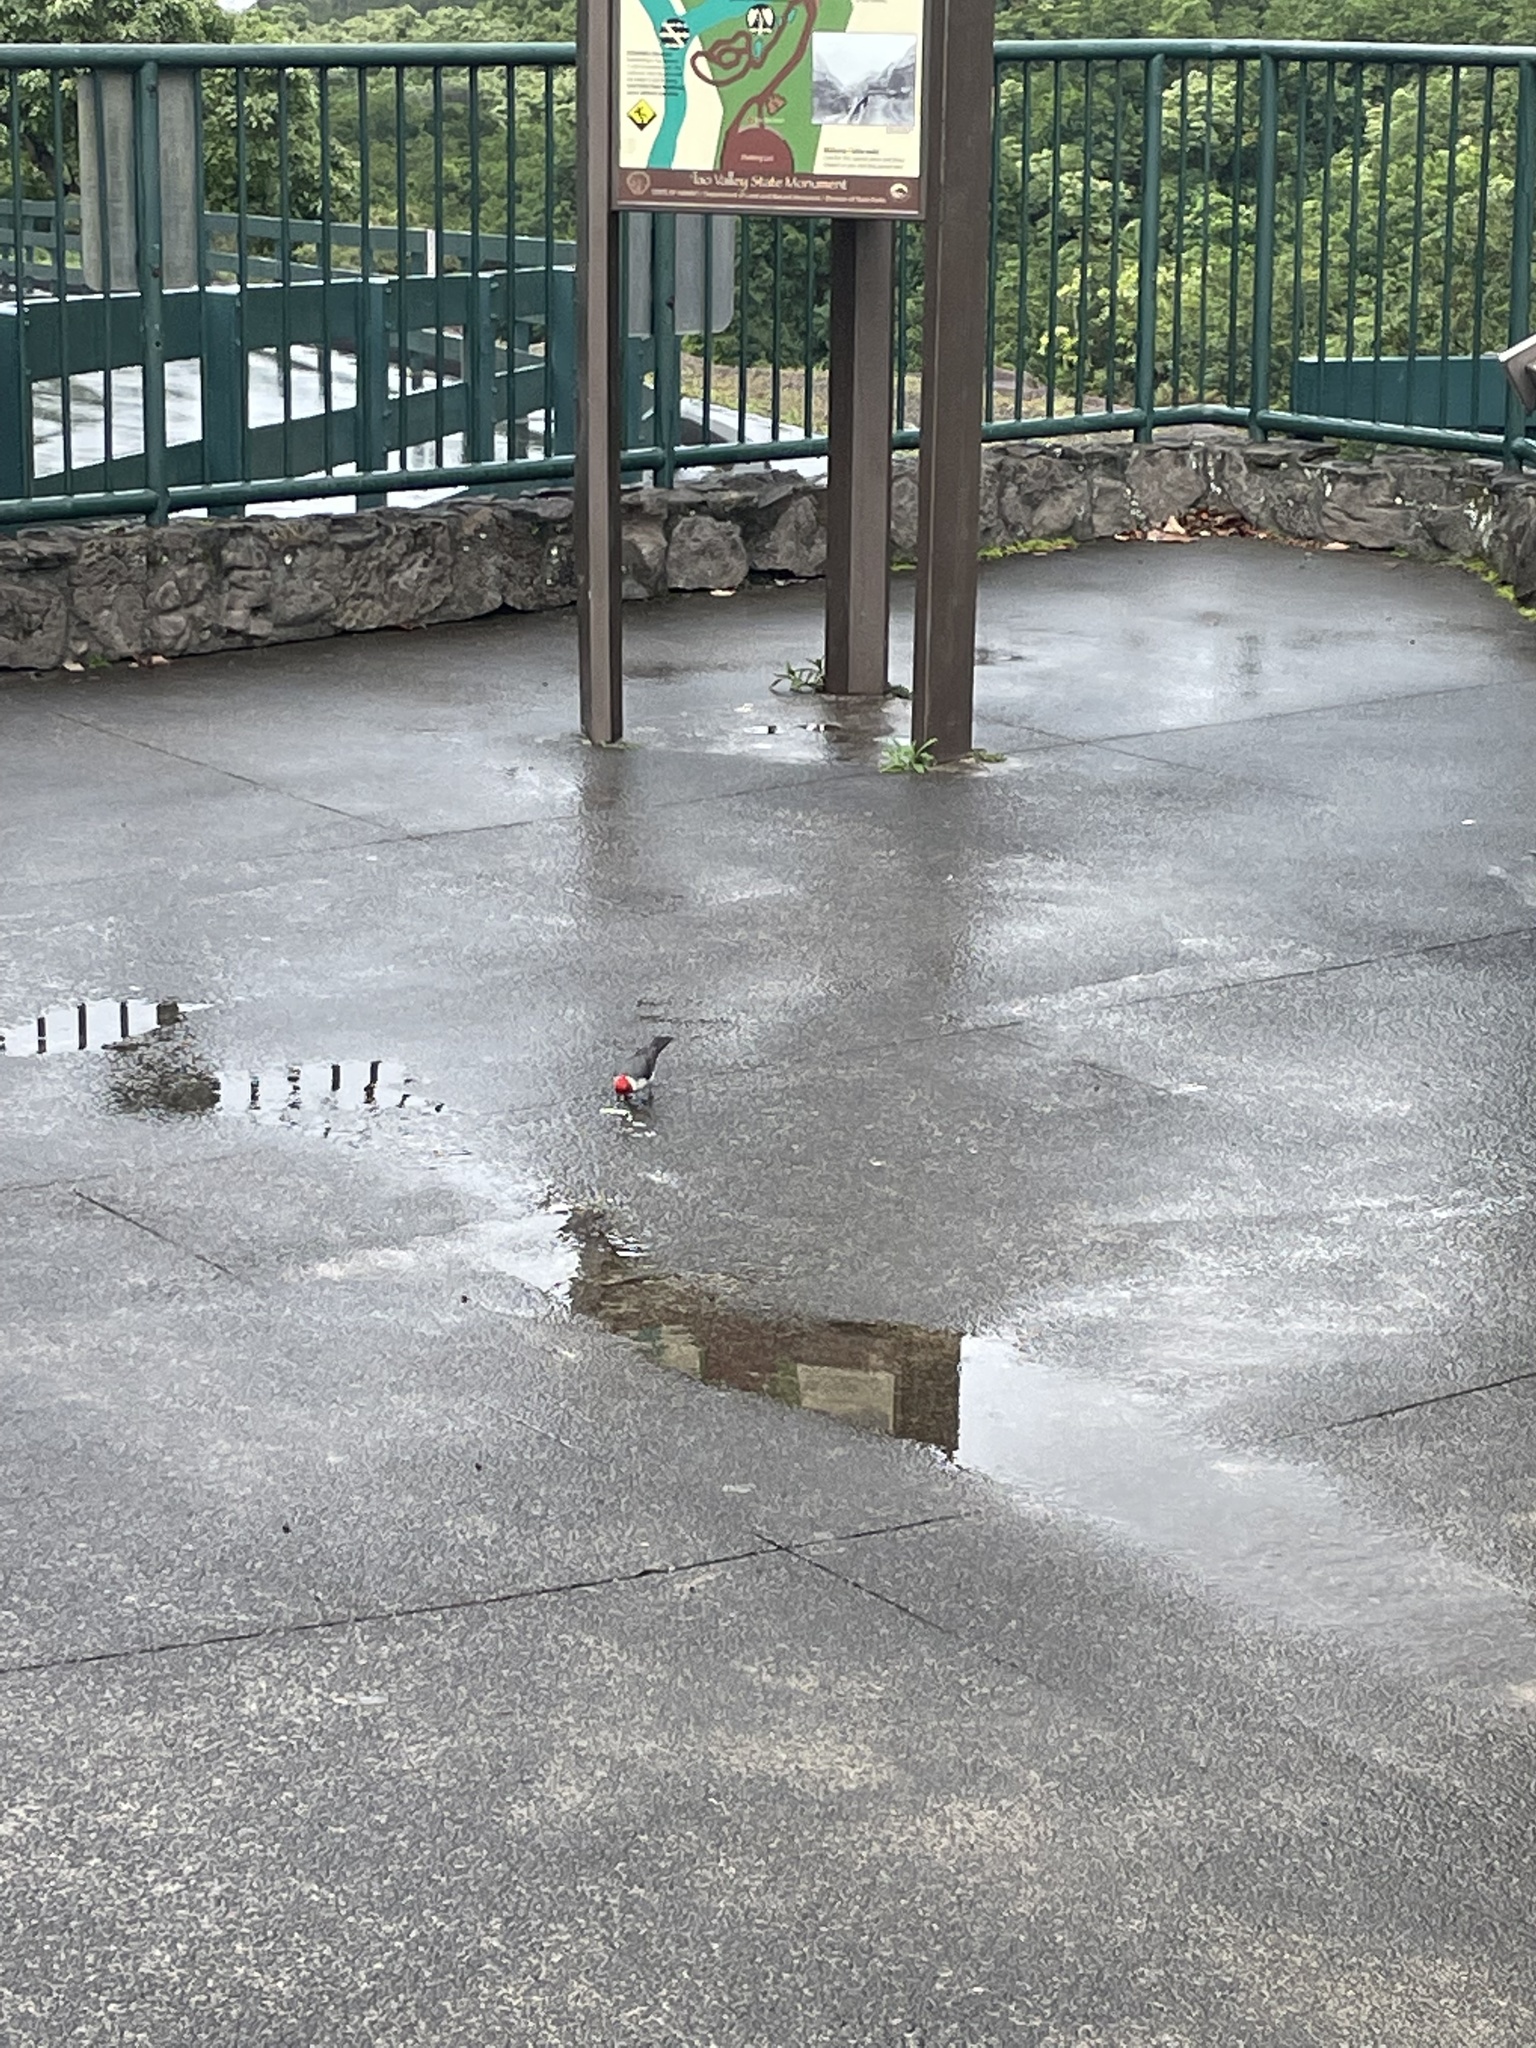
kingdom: Animalia
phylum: Chordata
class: Aves
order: Passeriformes
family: Thraupidae
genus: Paroaria
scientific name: Paroaria coronata
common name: Red-crested cardinal
